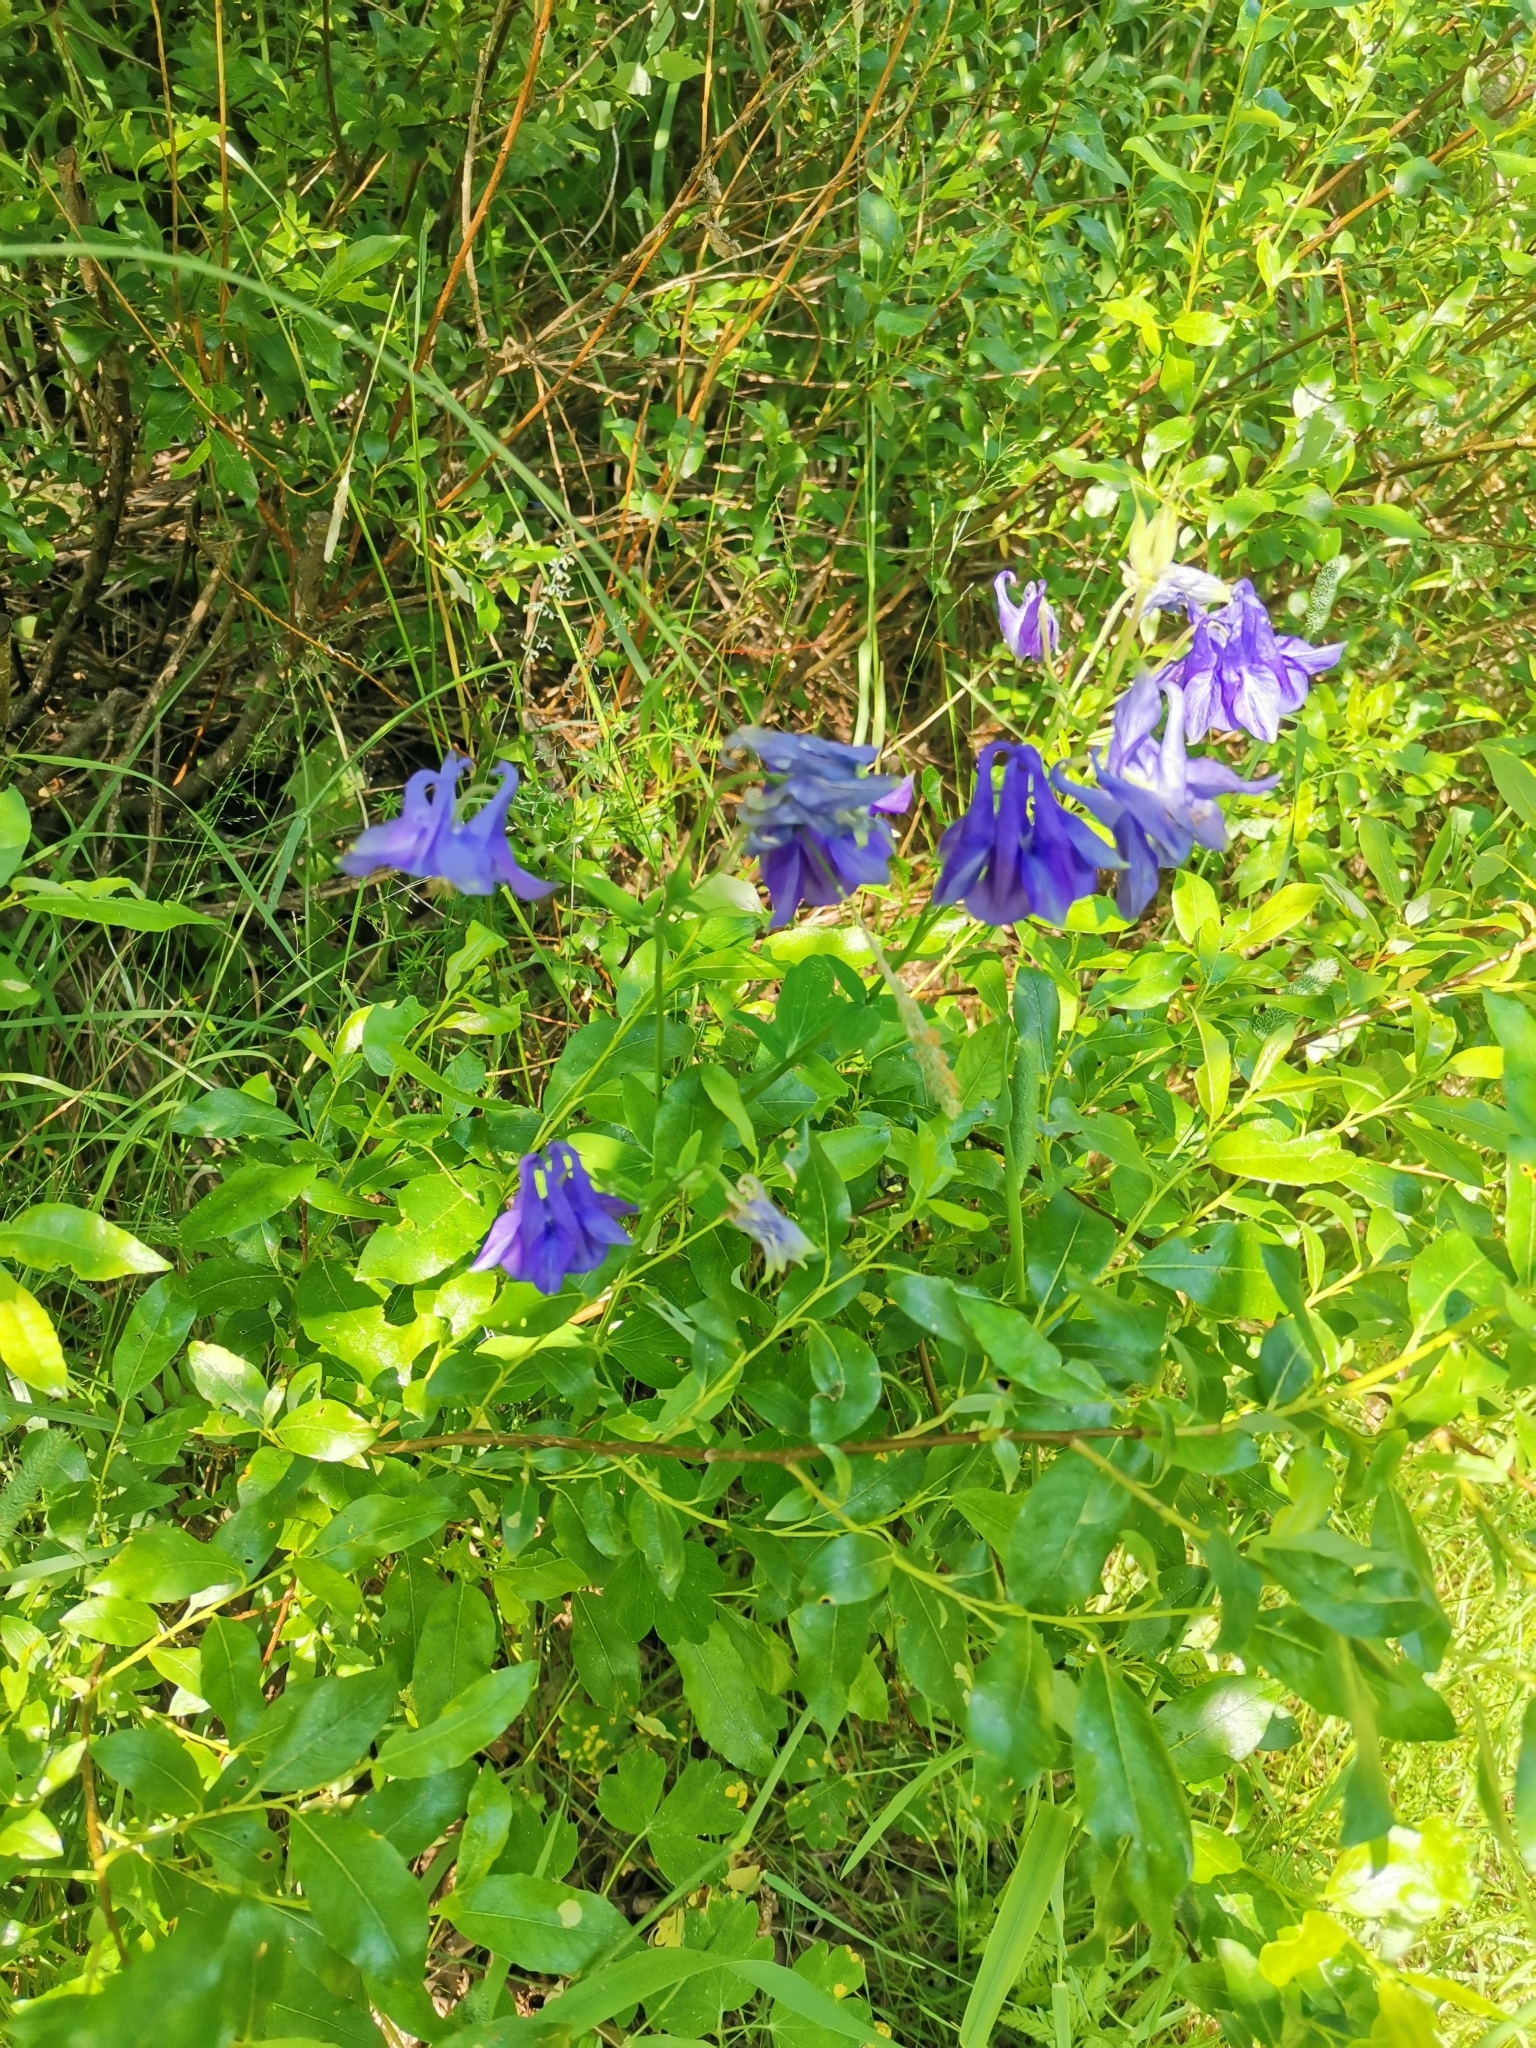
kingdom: Plantae
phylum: Tracheophyta
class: Magnoliopsida
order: Ranunculales
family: Ranunculaceae
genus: Aquilegia
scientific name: Aquilegia vulgaris
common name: Columbine
